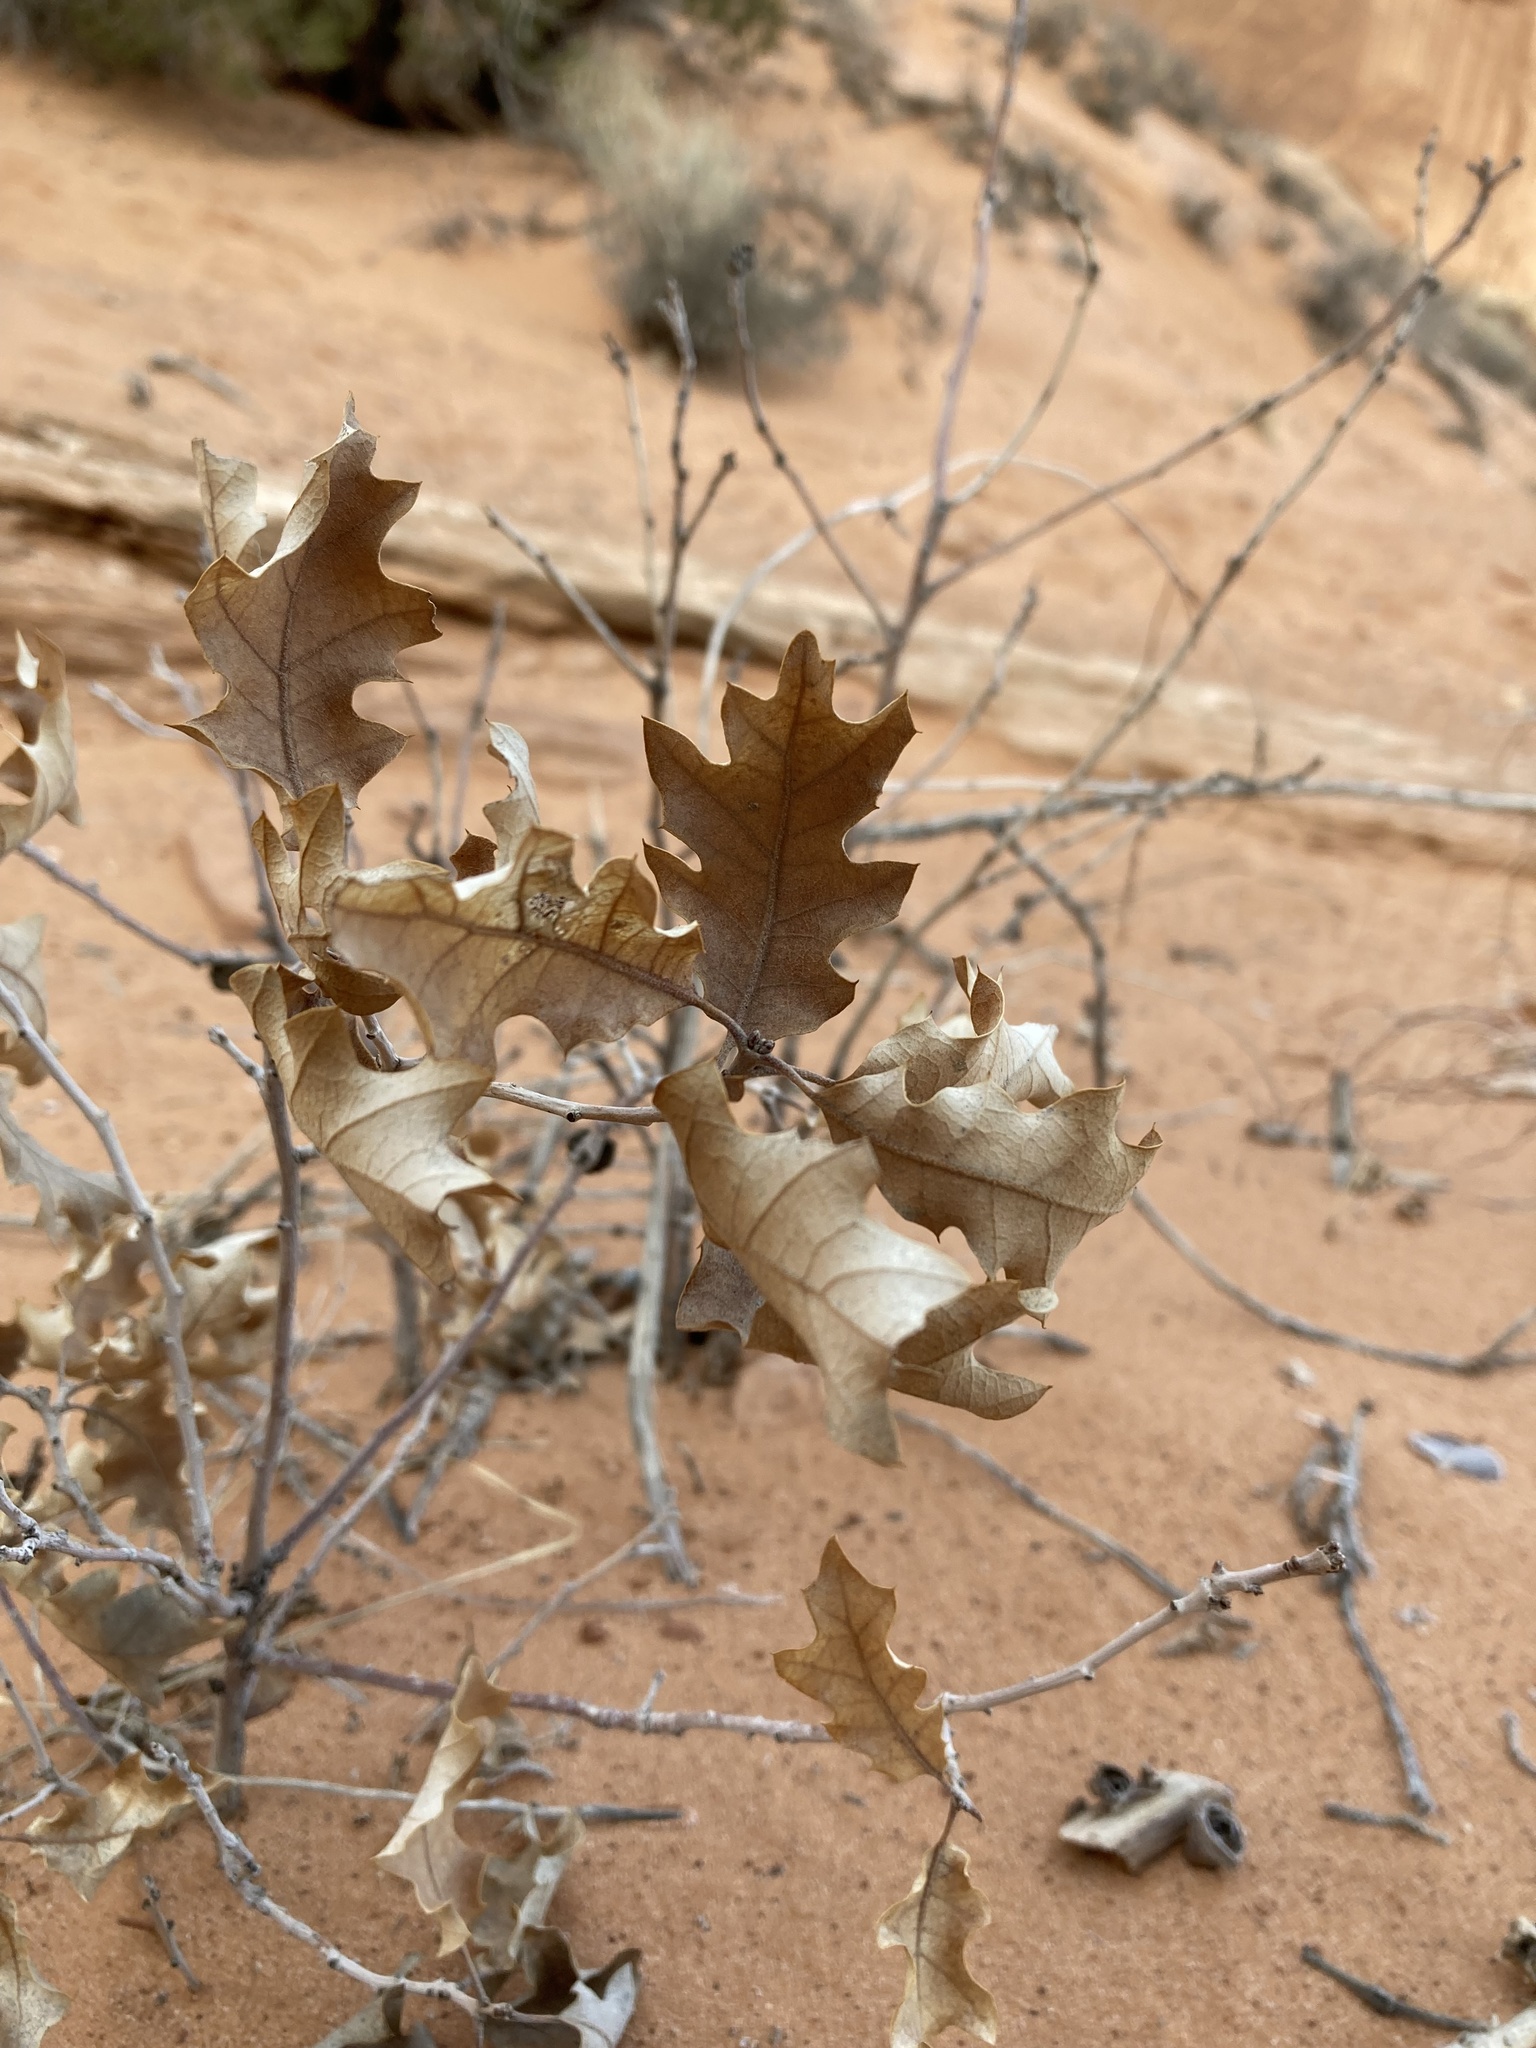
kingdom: Plantae
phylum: Tracheophyta
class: Magnoliopsida
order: Fagales
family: Fagaceae
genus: Quercus
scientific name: Quercus welshii
